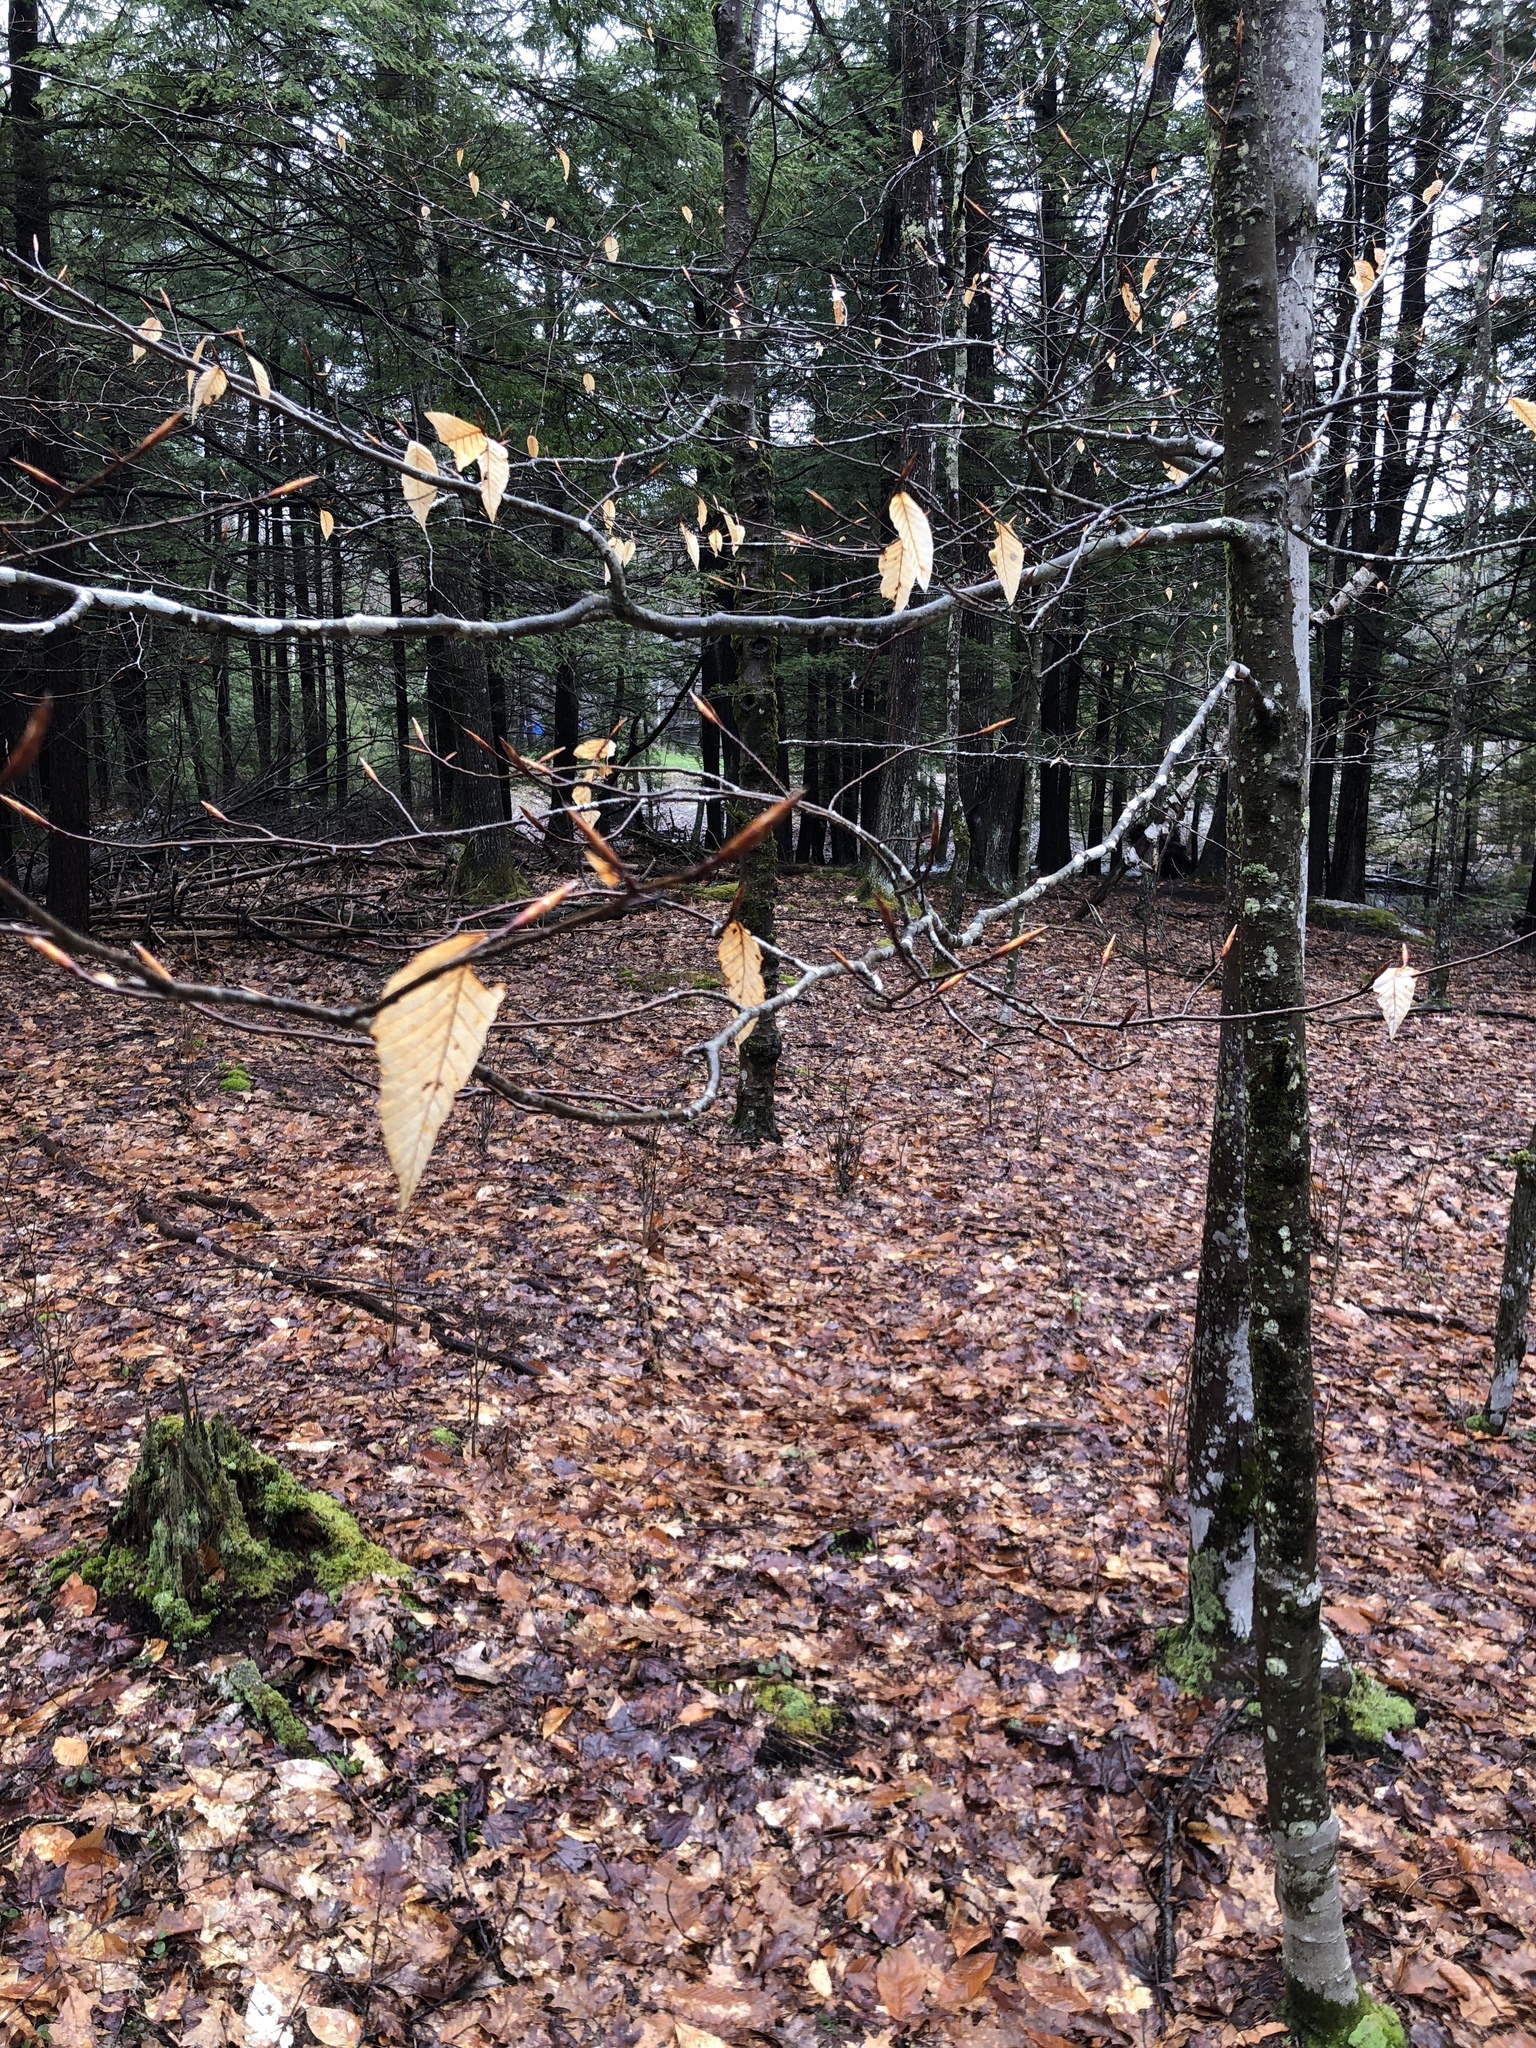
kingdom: Plantae
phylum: Tracheophyta
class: Magnoliopsida
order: Fagales
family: Fagaceae
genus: Fagus
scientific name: Fagus grandifolia
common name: American beech
